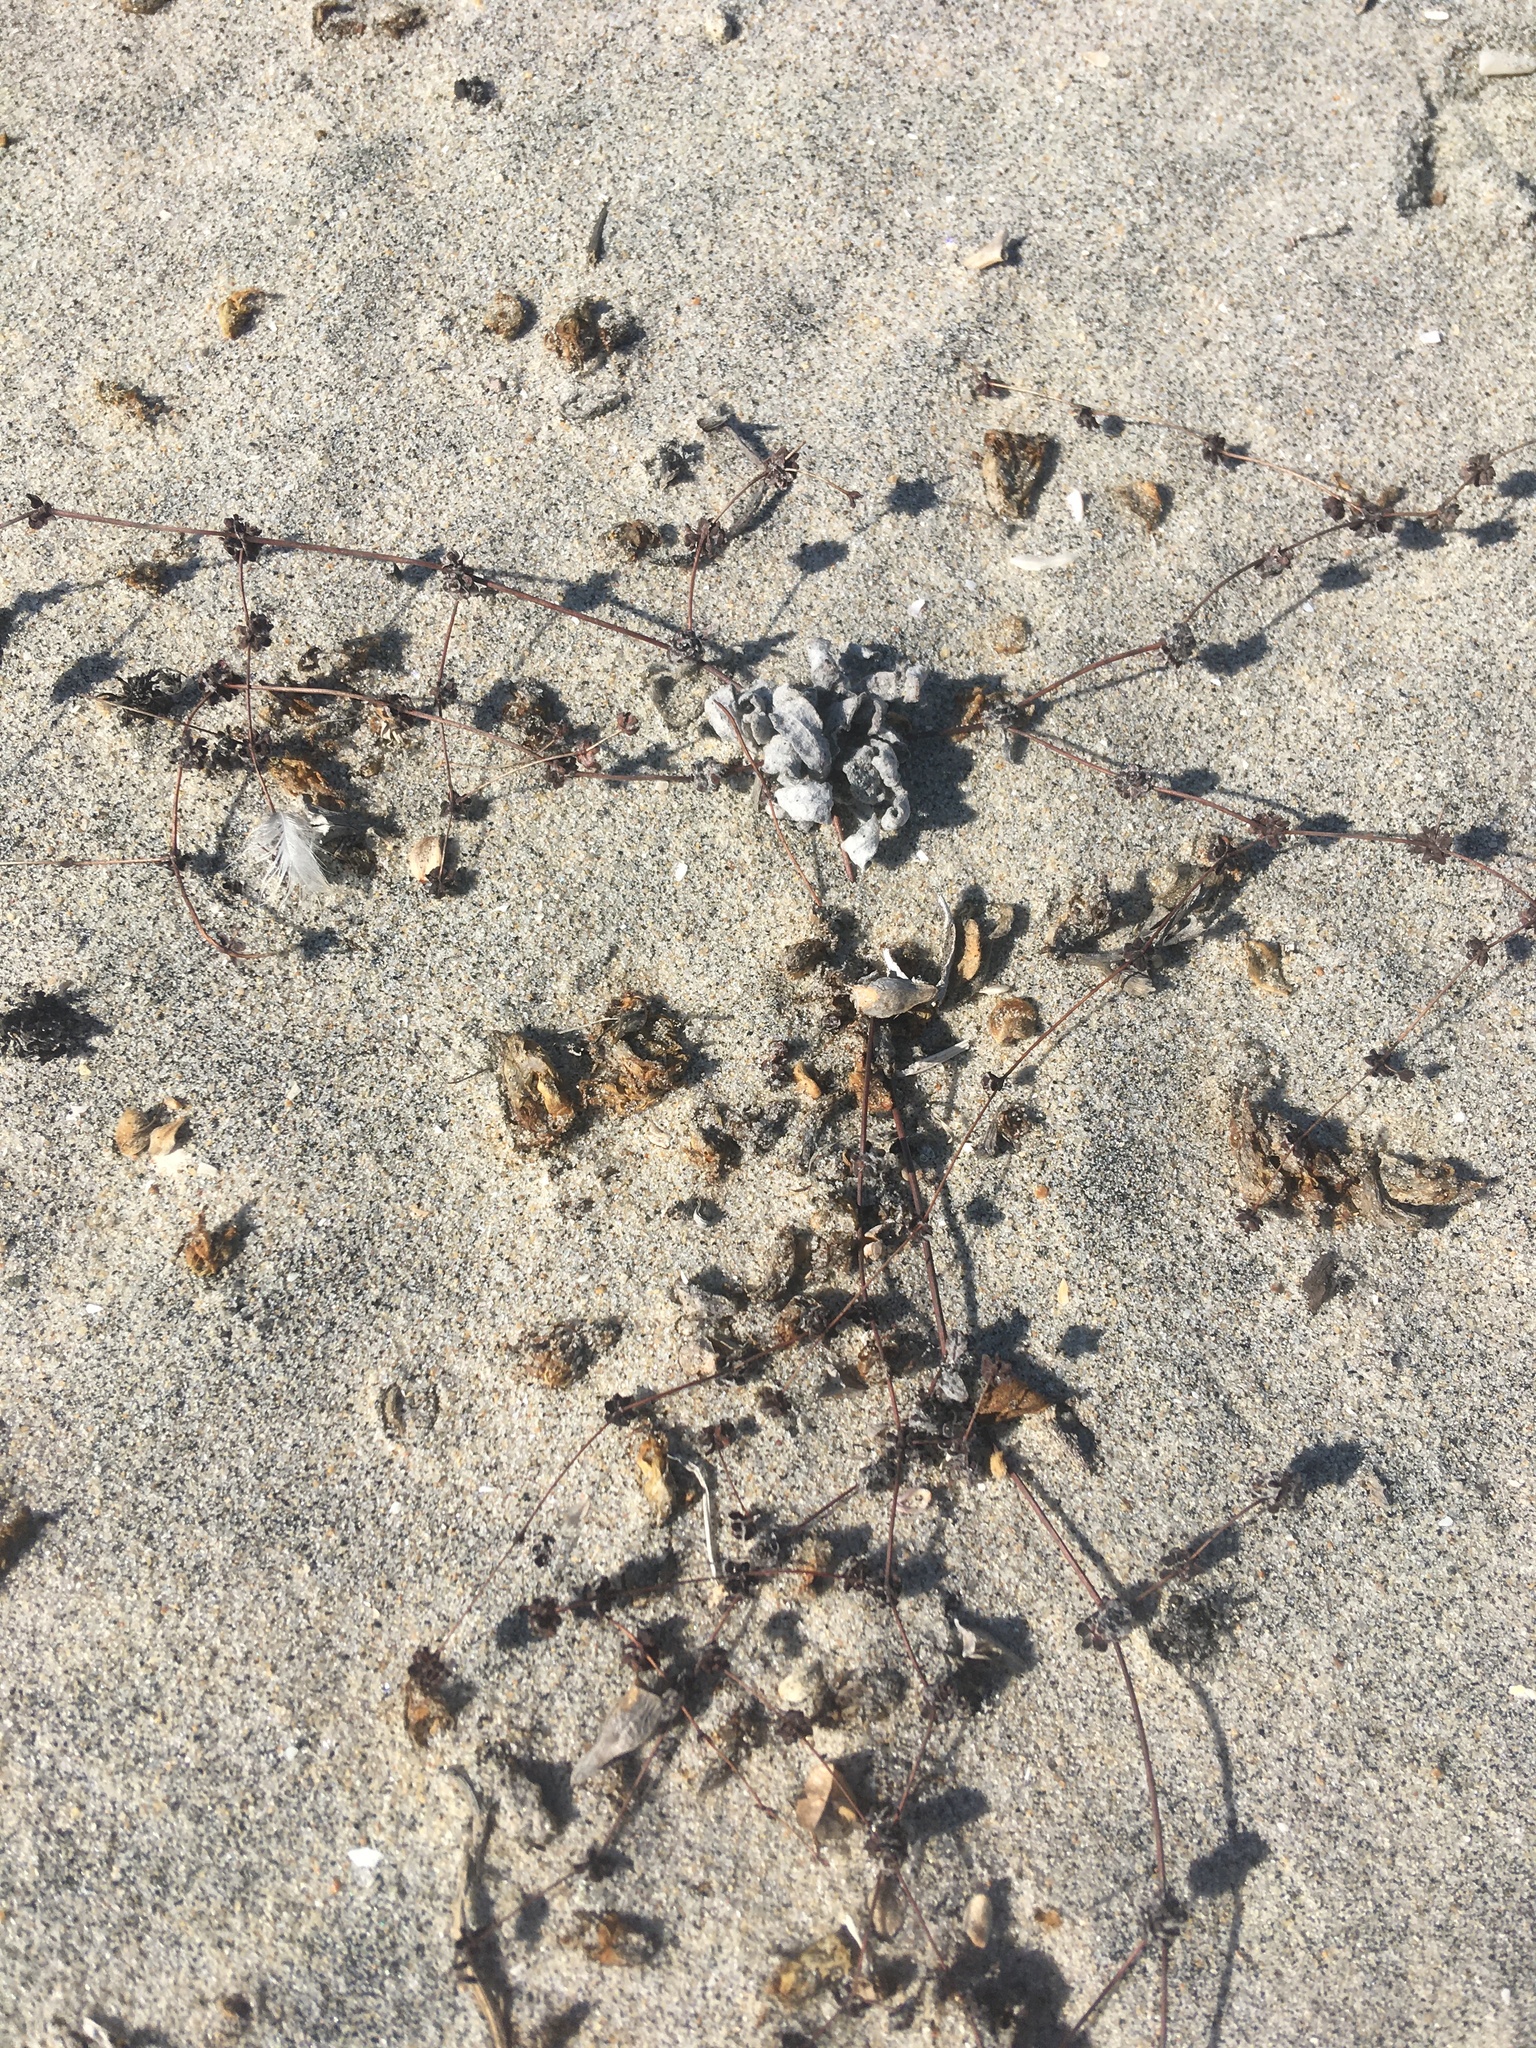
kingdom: Plantae
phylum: Tracheophyta
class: Magnoliopsida
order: Caryophyllales
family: Polygonaceae
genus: Nemacaulis
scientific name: Nemacaulis denudata
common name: Woolly-heads
